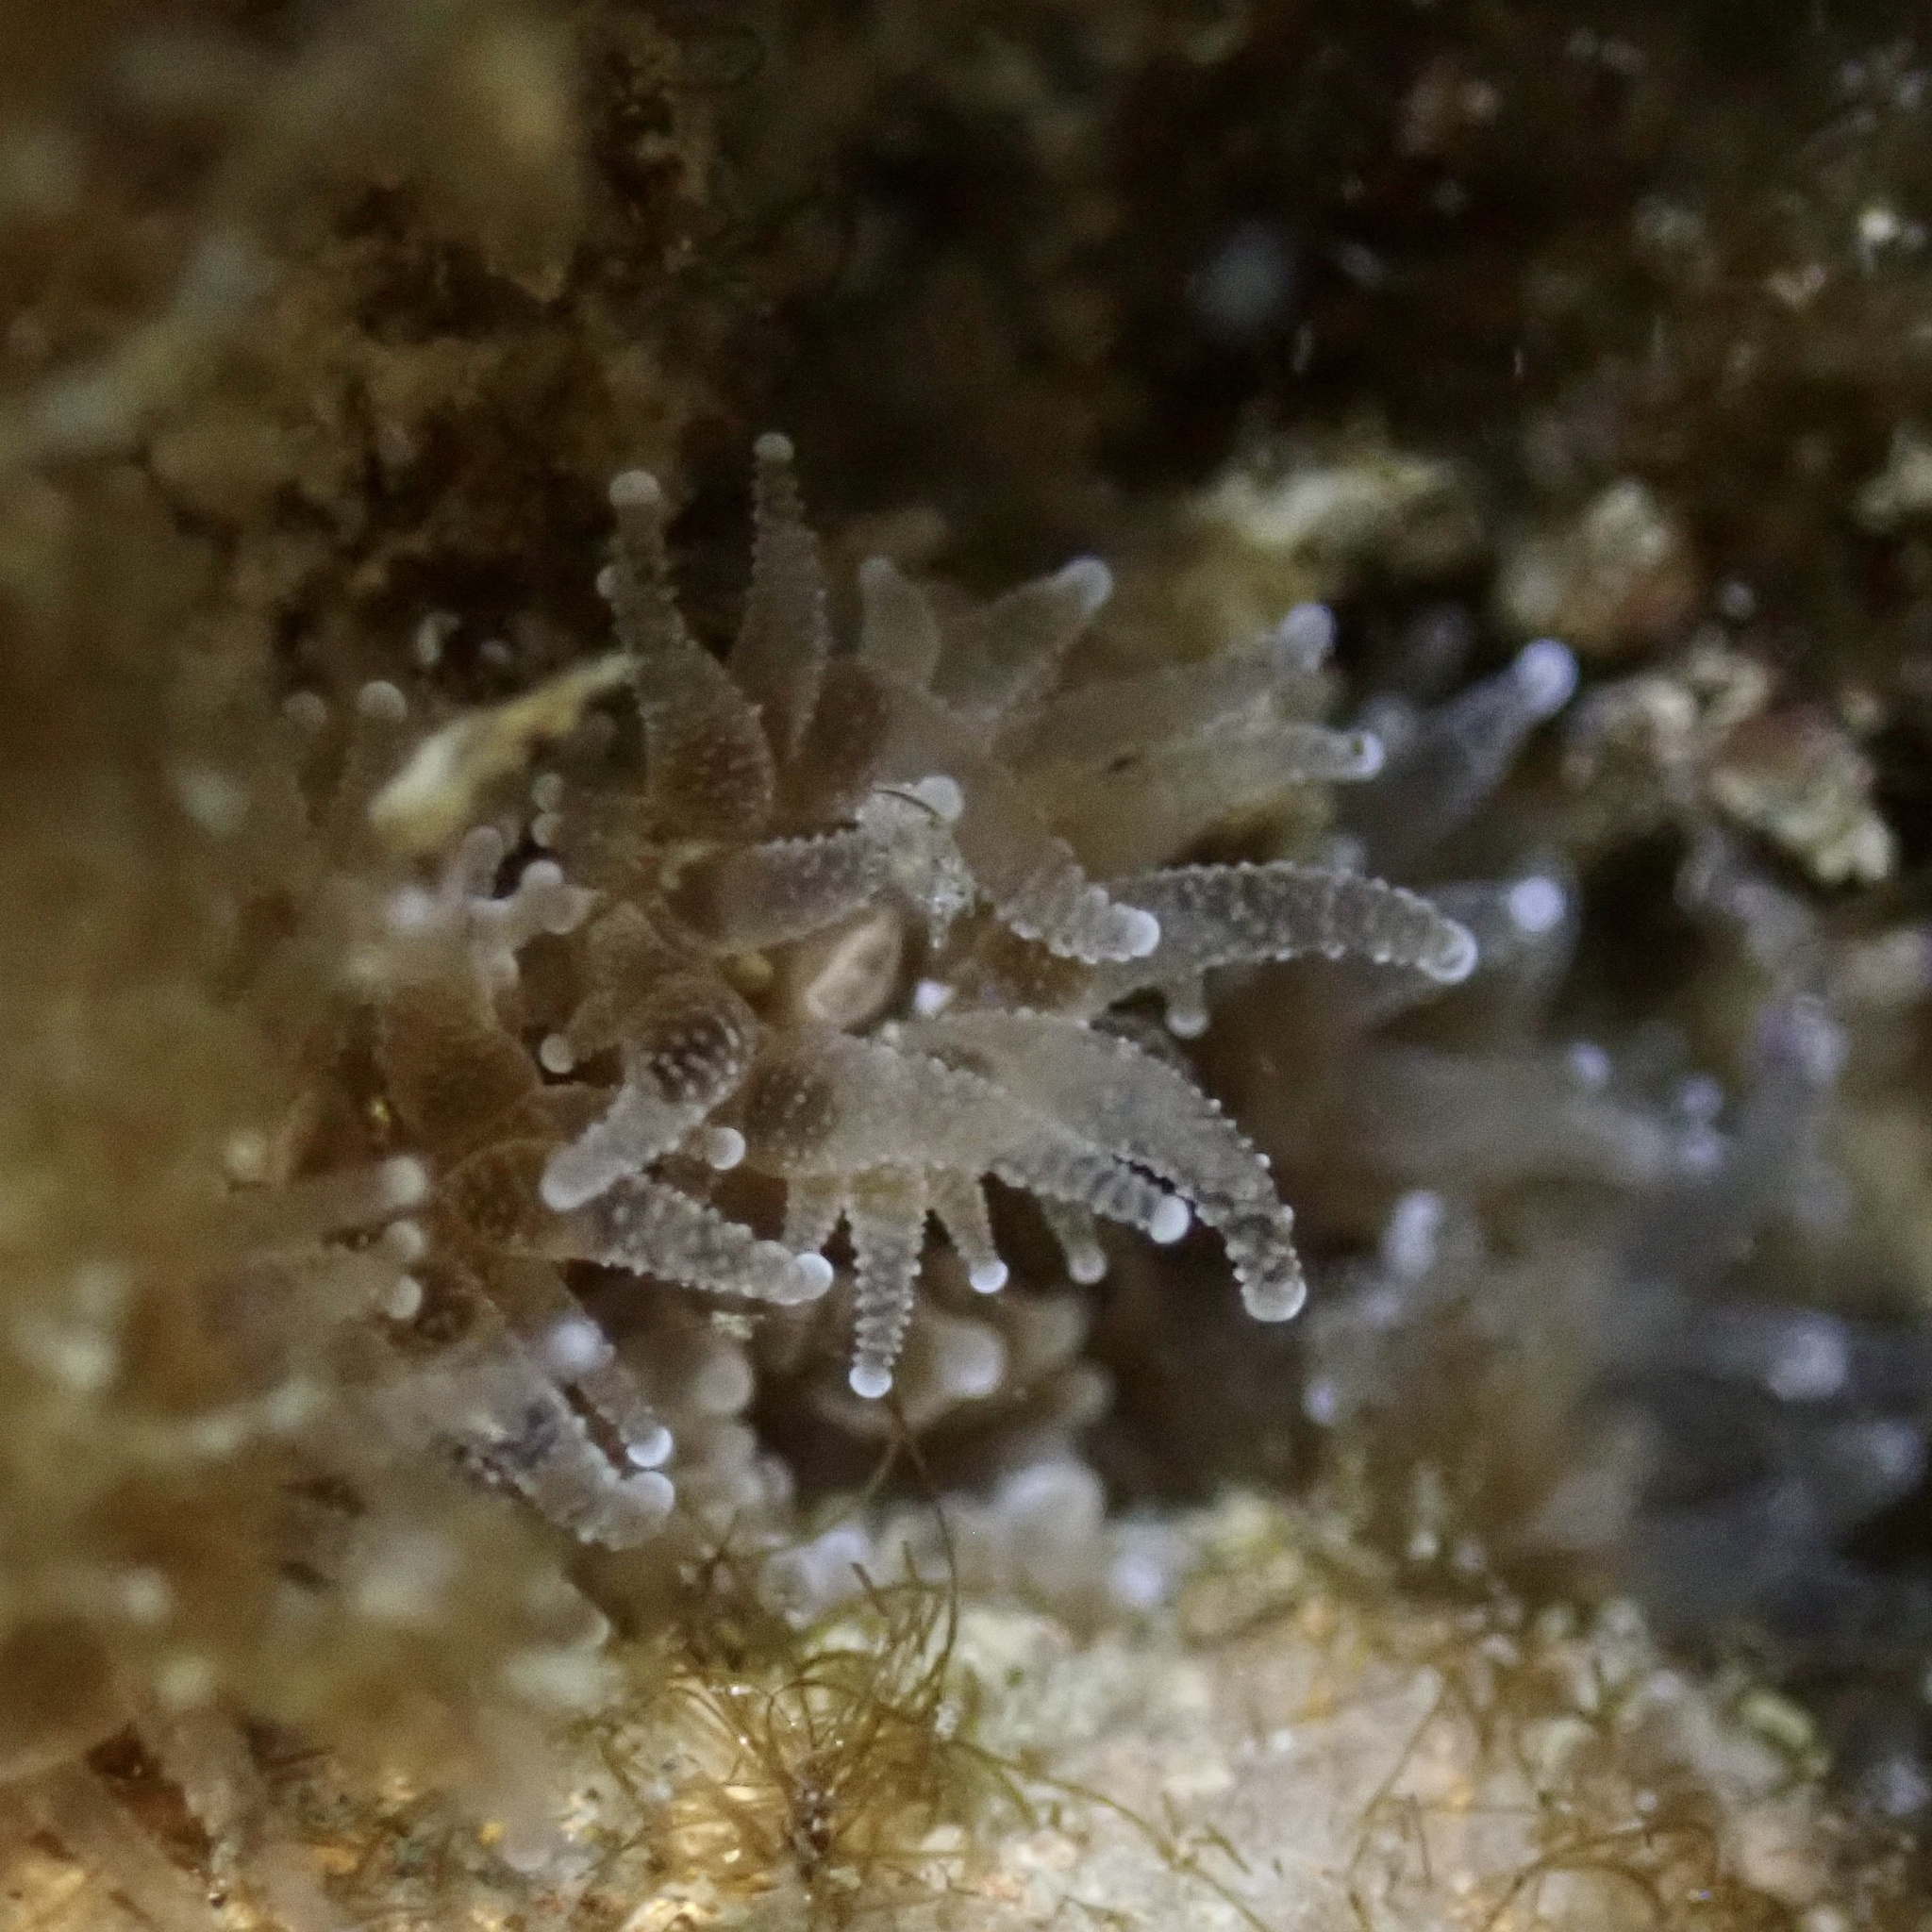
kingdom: Animalia
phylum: Cnidaria
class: Anthozoa
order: Scleractinia
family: Astrangiidae
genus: Astrangia
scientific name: Astrangia poculata
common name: Northern star coral
